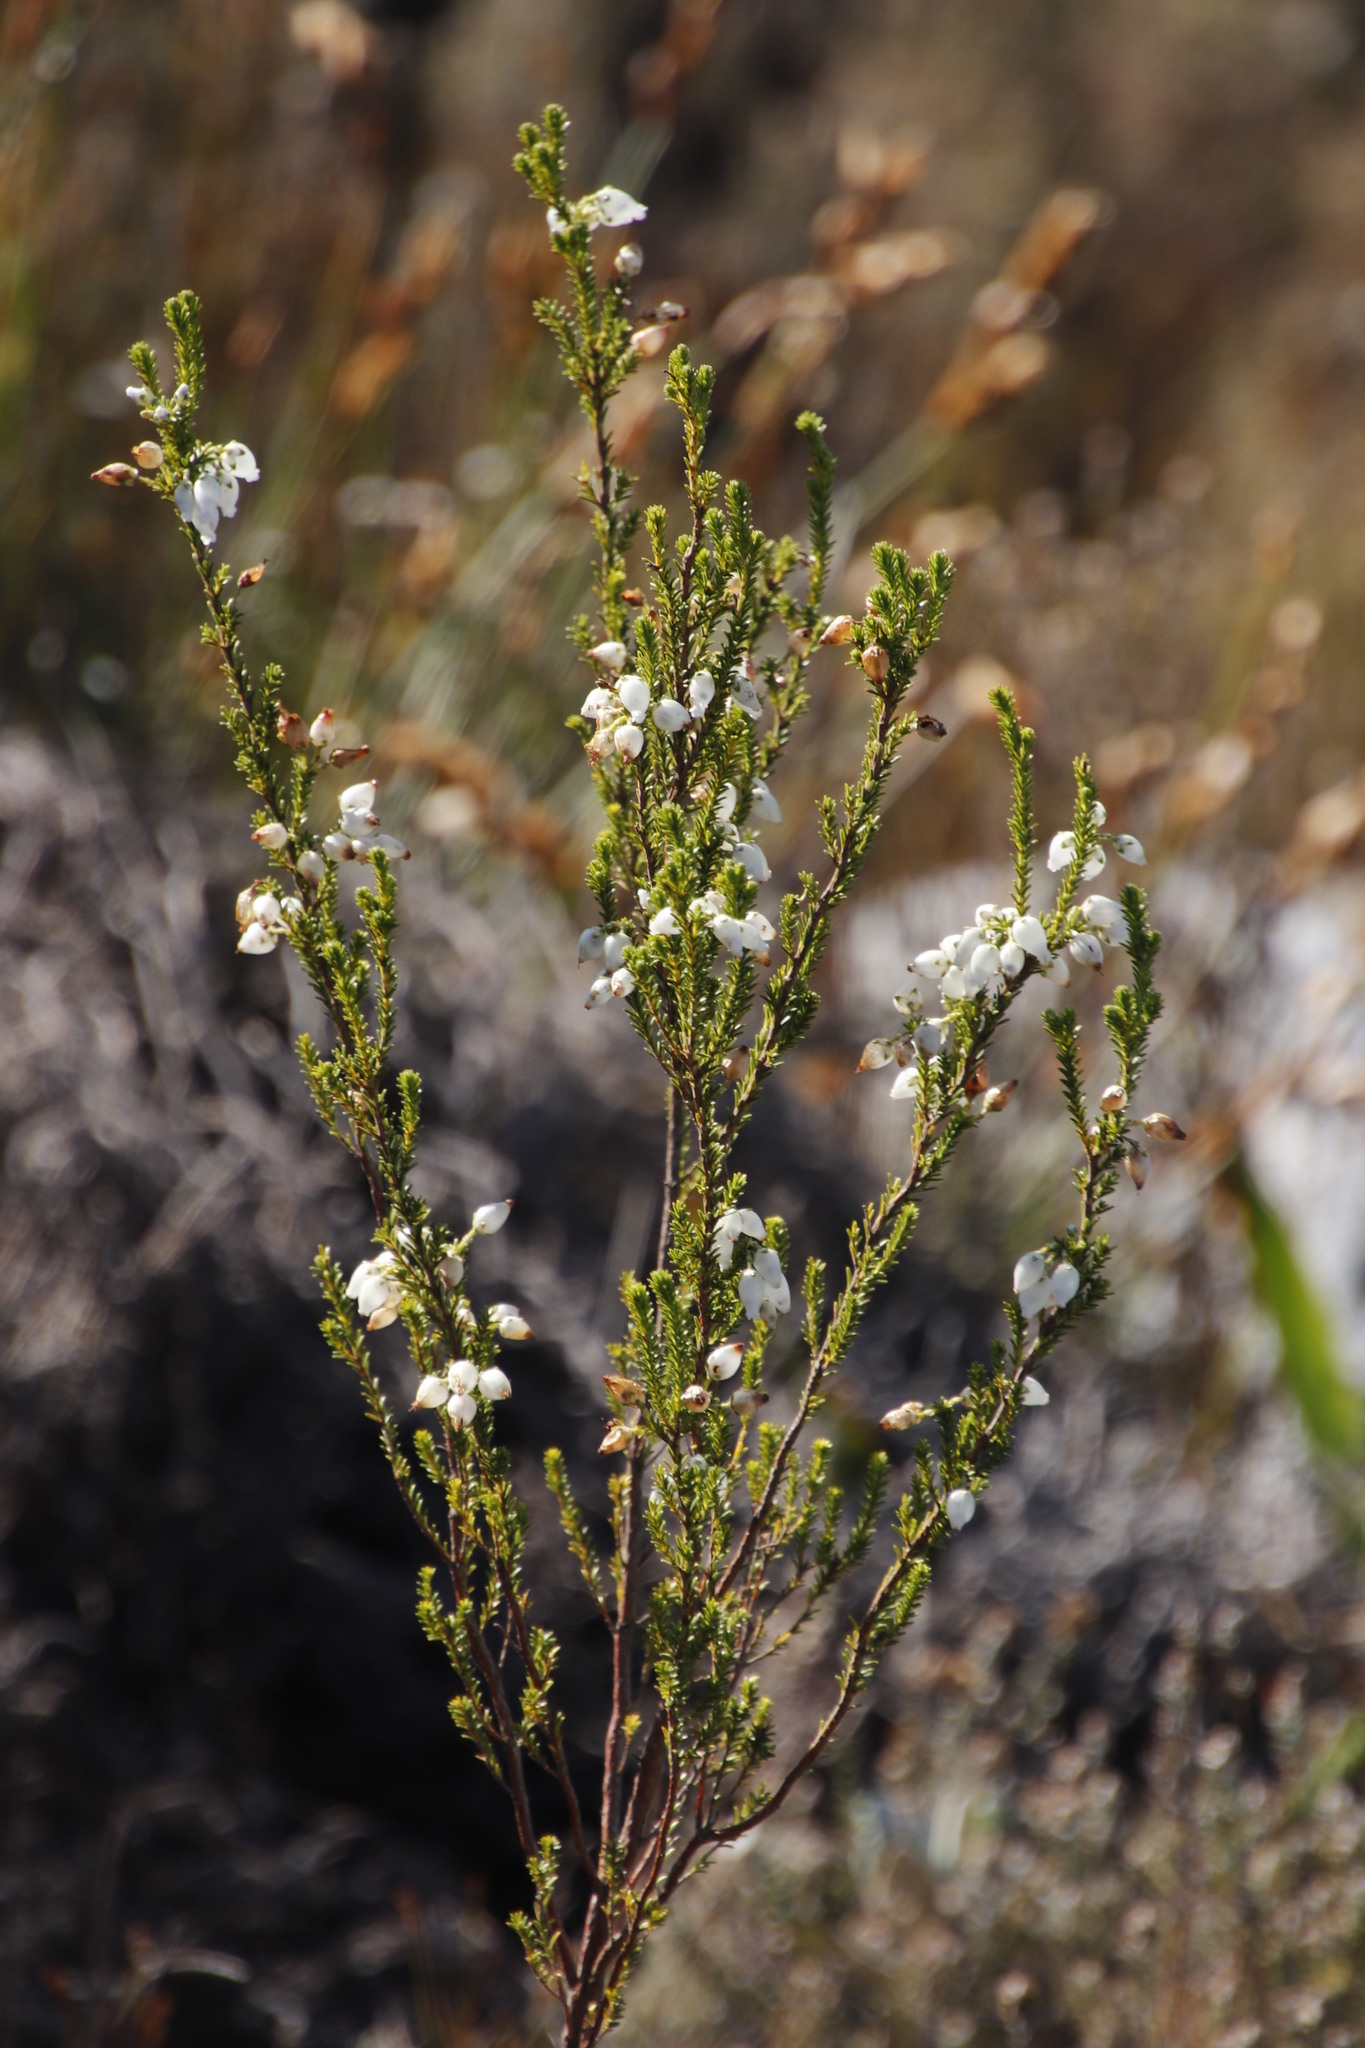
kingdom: Plantae
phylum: Tracheophyta
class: Magnoliopsida
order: Ericales
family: Ericaceae
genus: Erica
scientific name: Erica physodes
